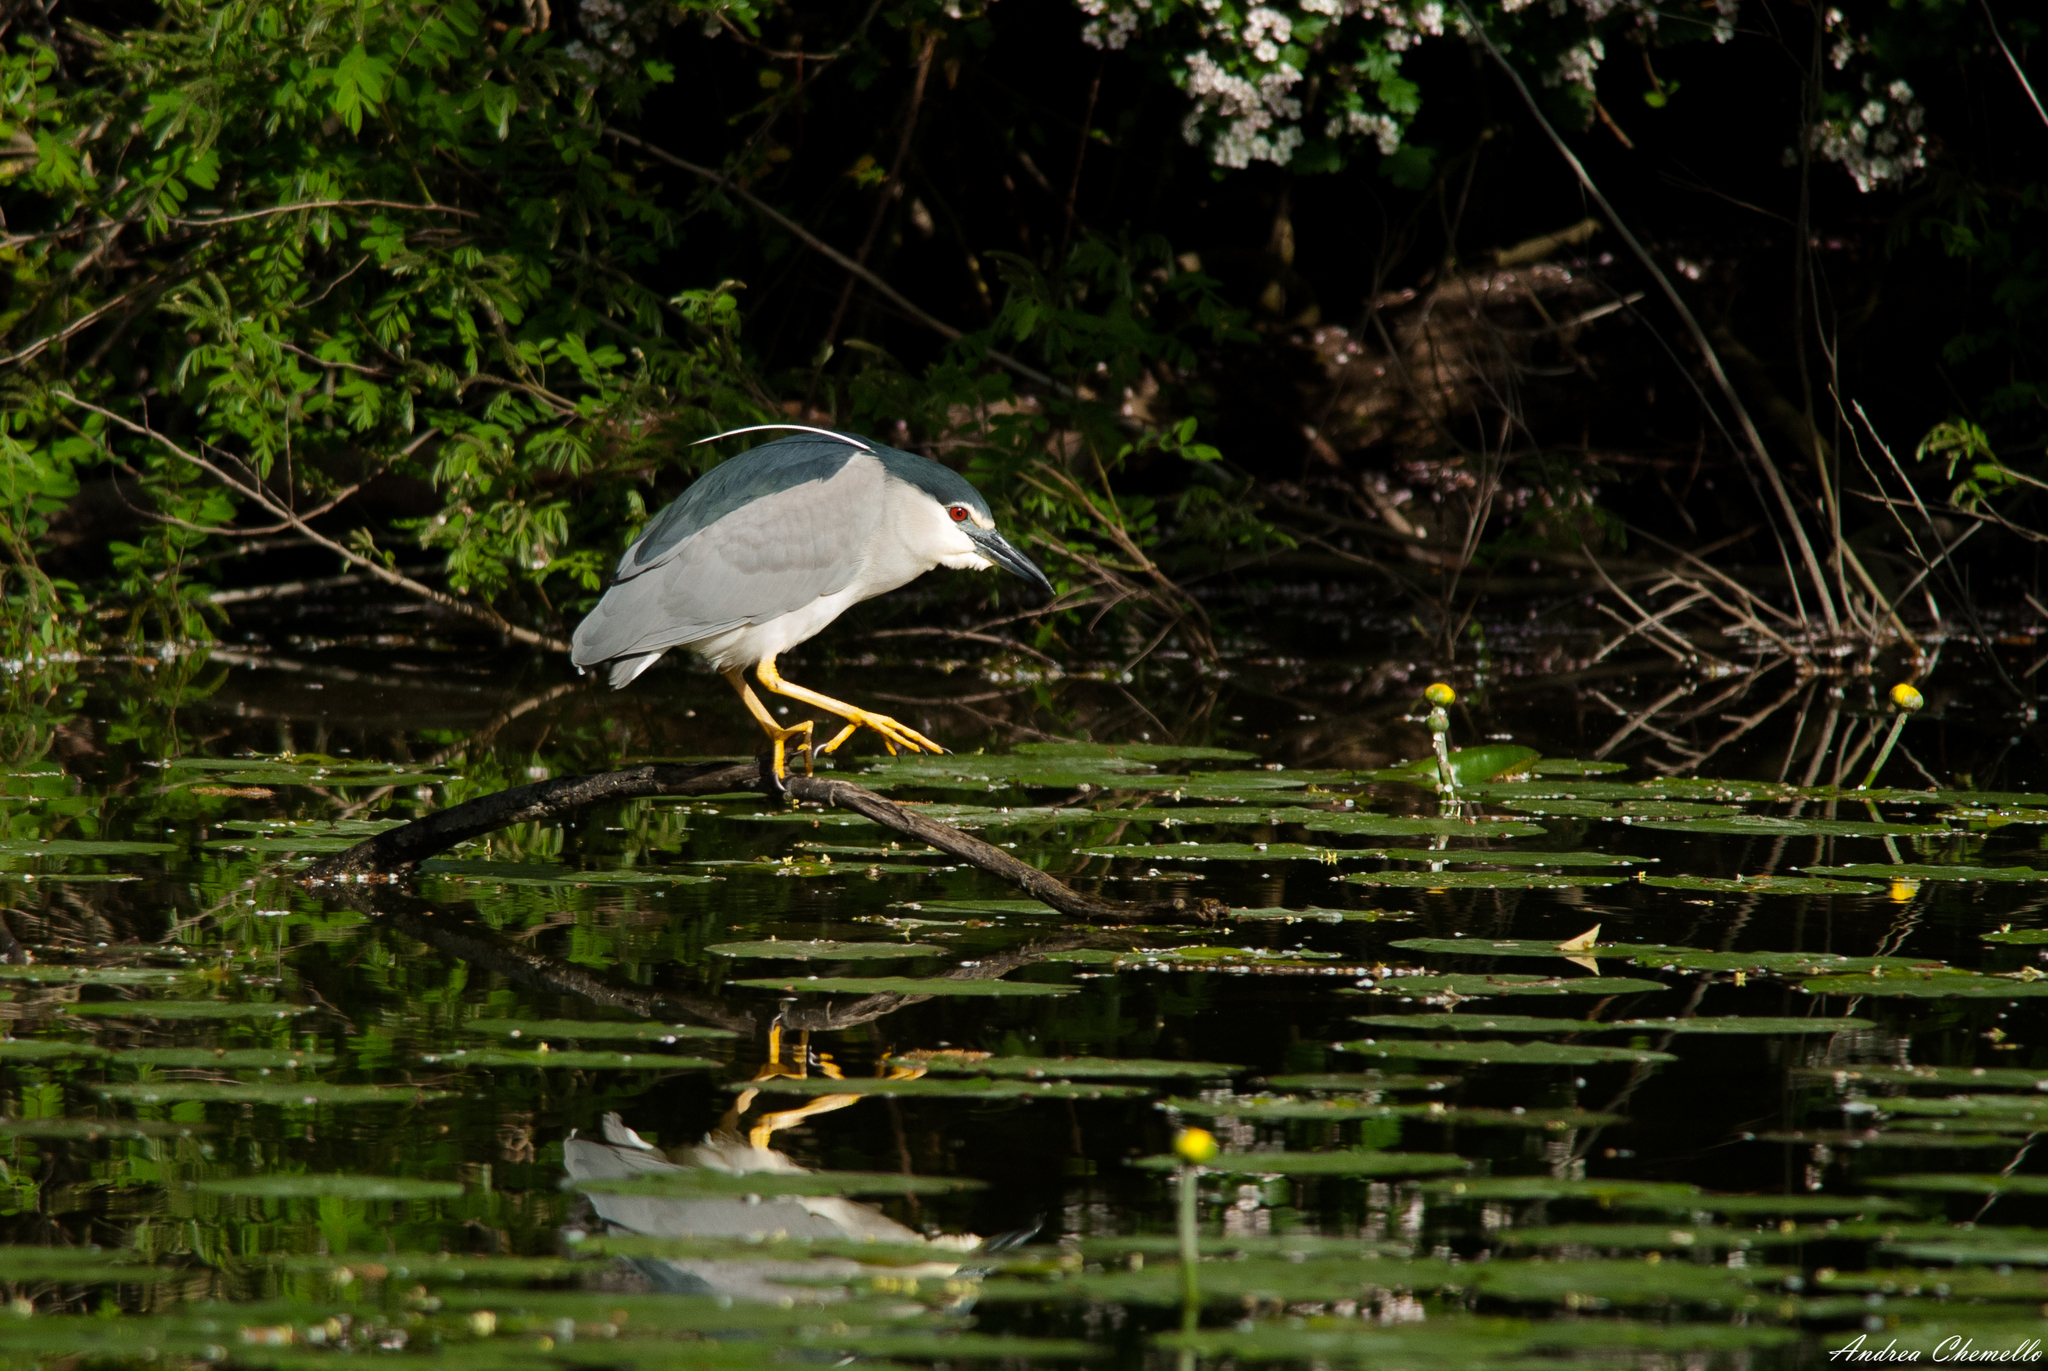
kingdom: Animalia
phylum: Chordata
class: Aves
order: Pelecaniformes
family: Ardeidae
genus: Nycticorax
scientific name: Nycticorax nycticorax
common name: Black-crowned night heron
